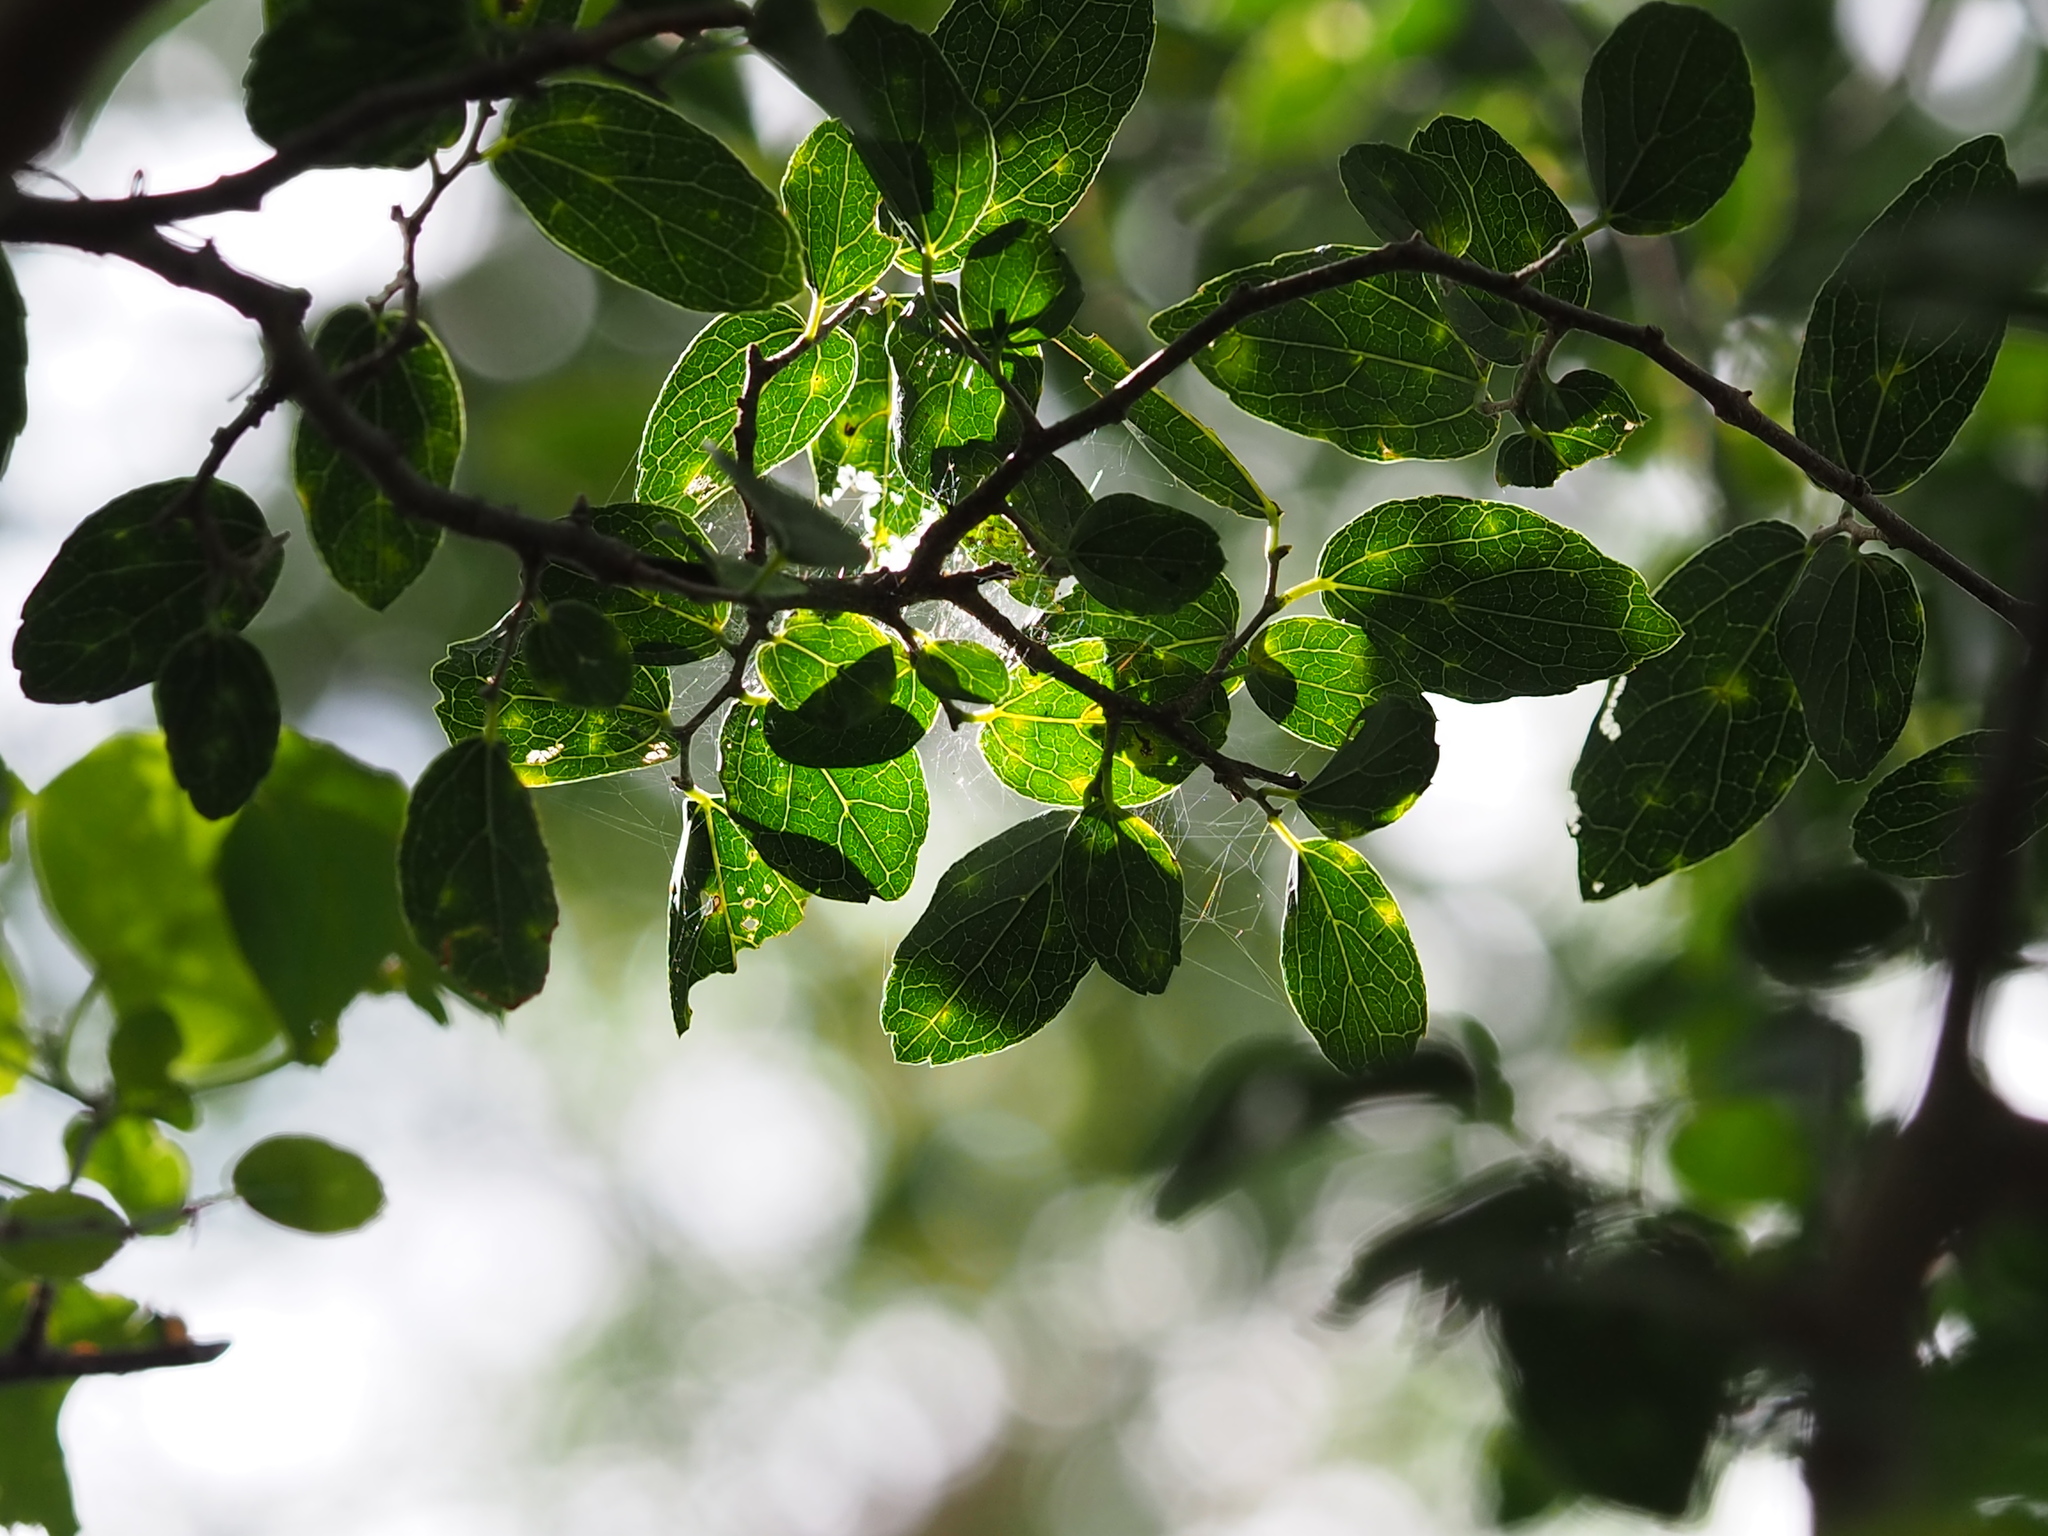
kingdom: Plantae
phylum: Tracheophyta
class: Magnoliopsida
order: Rosales
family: Cannabaceae
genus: Celtis
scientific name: Celtis sinensis
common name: Chinese hackberry
